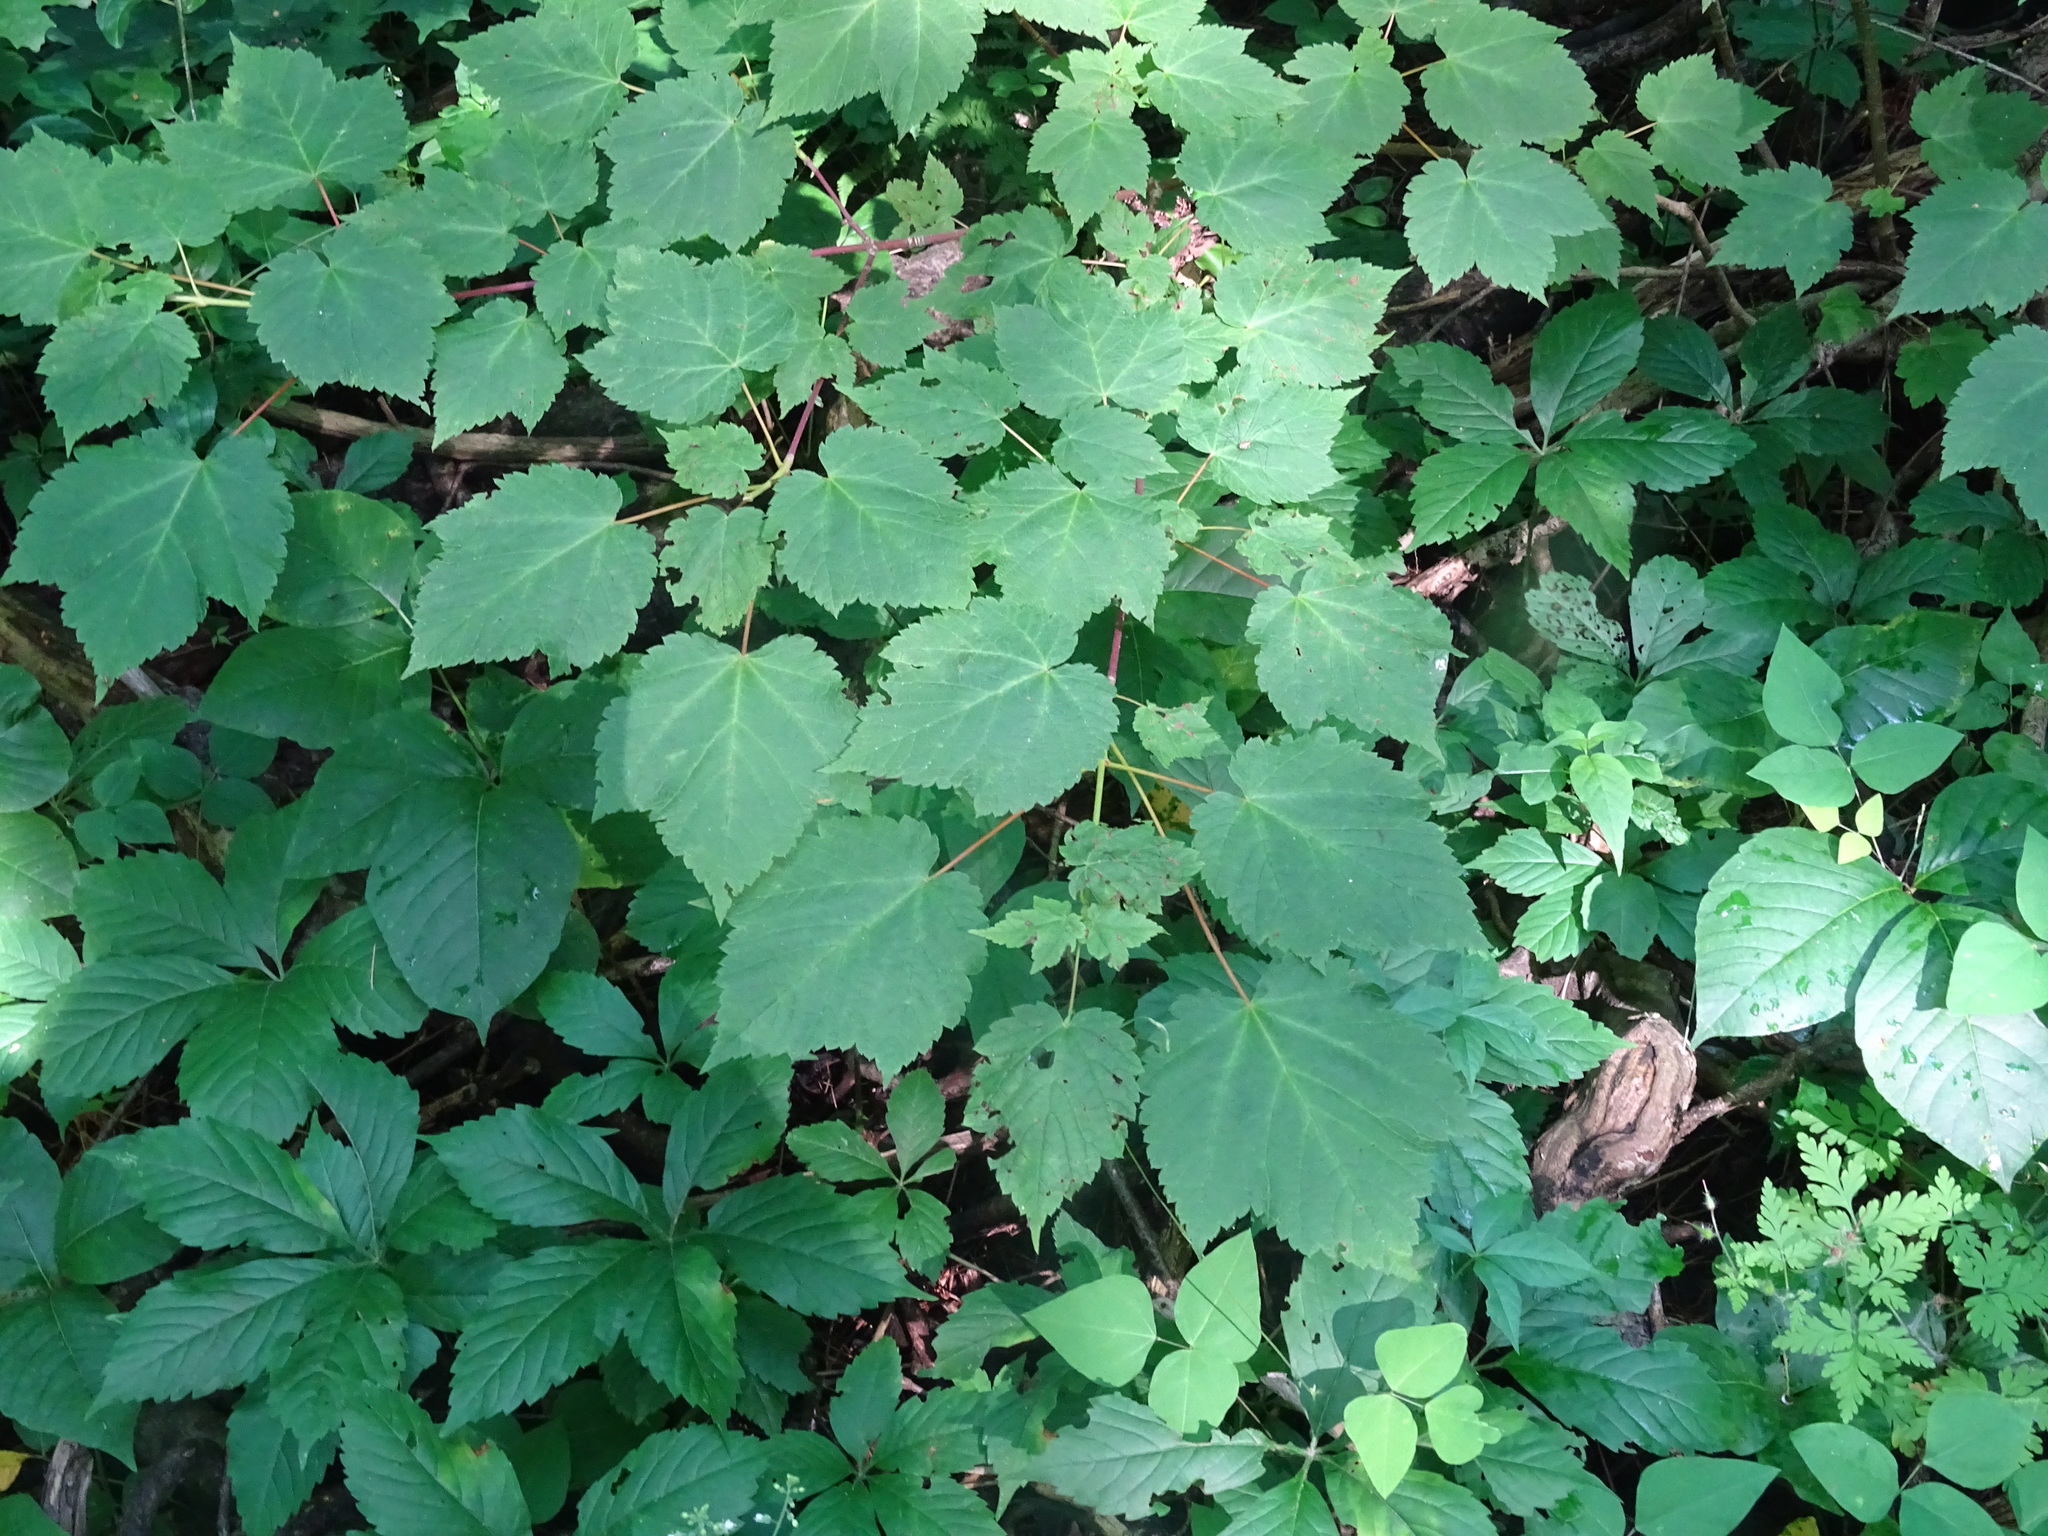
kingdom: Plantae
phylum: Tracheophyta
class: Magnoliopsida
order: Sapindales
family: Sapindaceae
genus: Acer
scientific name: Acer spicatum
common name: Mountain maple
